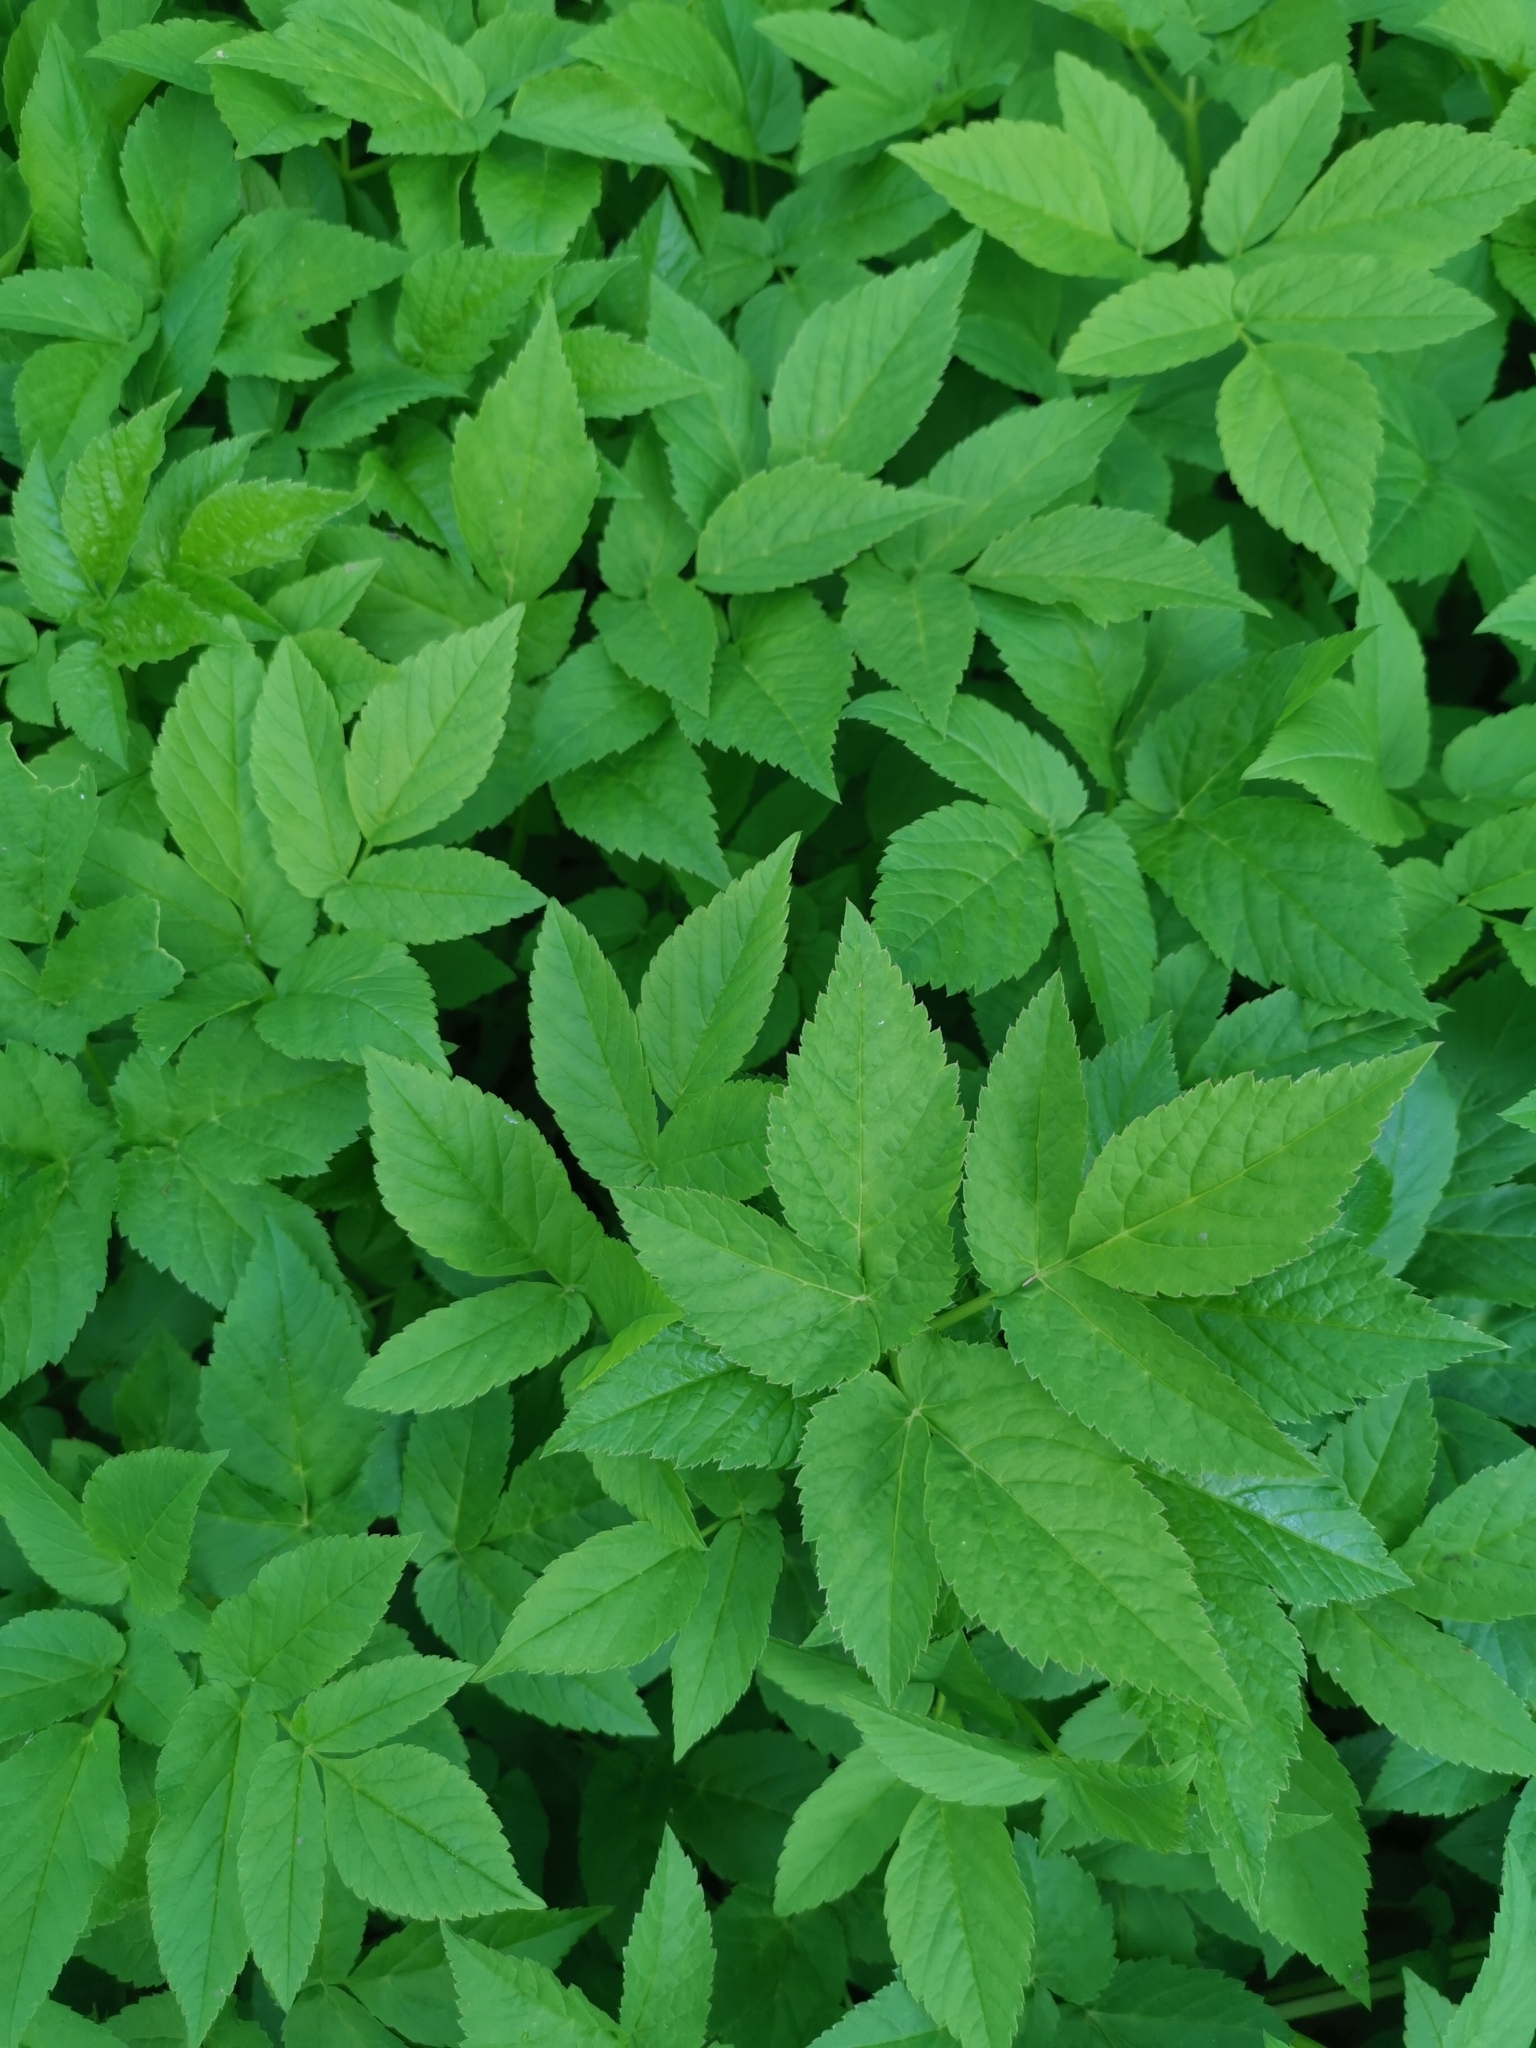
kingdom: Plantae
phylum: Tracheophyta
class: Magnoliopsida
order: Apiales
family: Apiaceae
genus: Aegopodium
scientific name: Aegopodium podagraria
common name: Ground-elder
